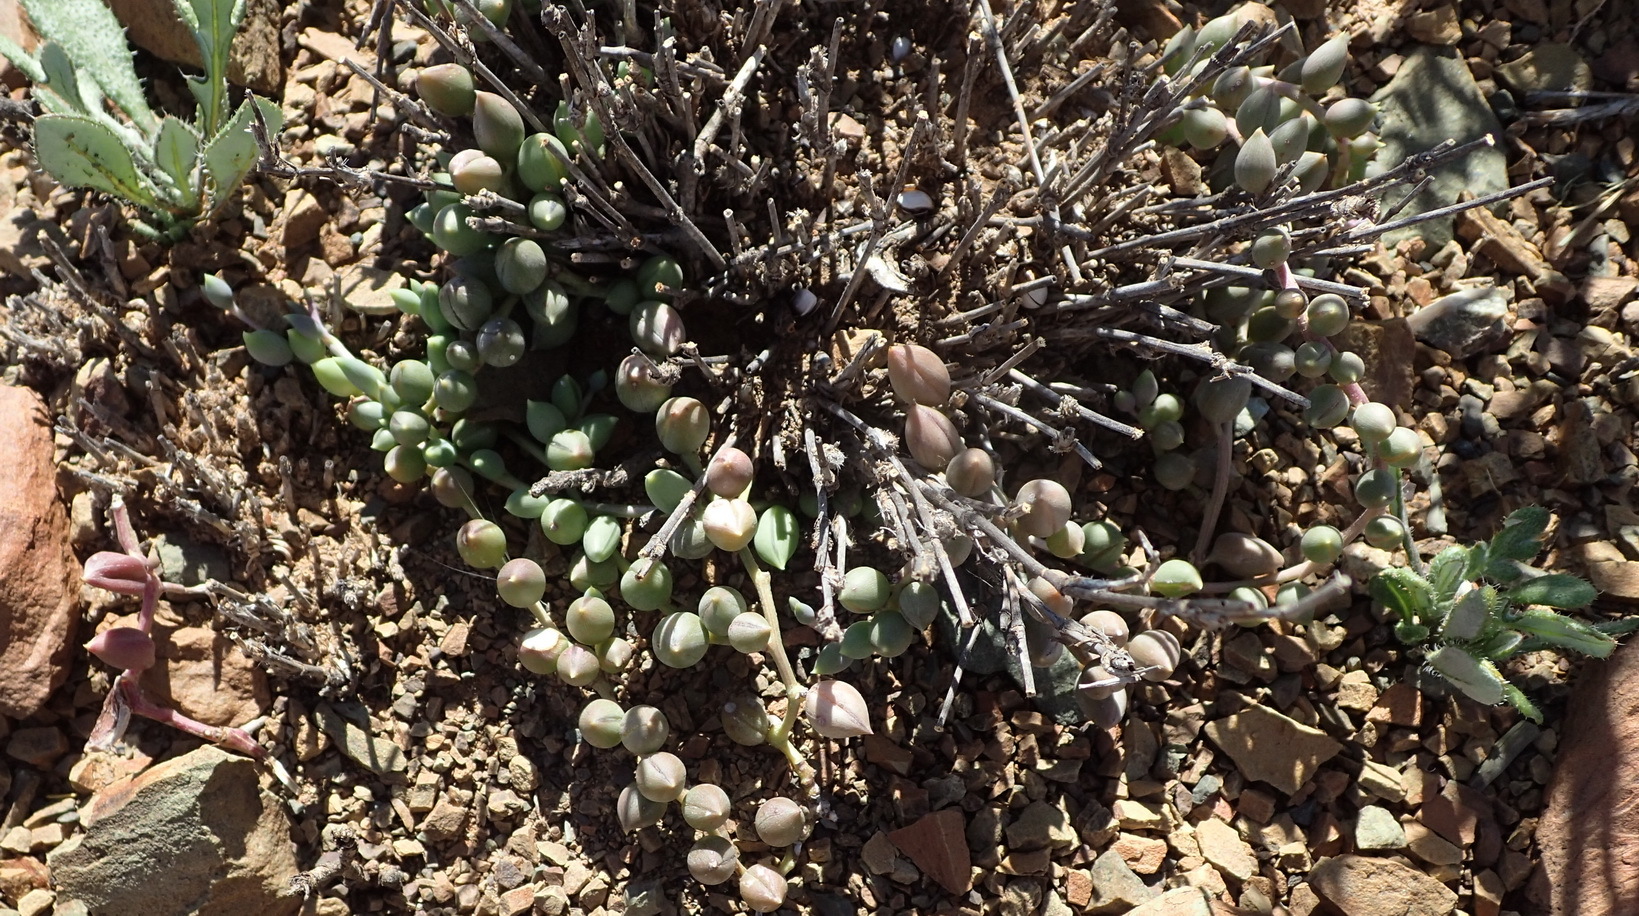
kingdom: Plantae
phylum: Tracheophyta
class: Magnoliopsida
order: Asterales
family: Asteraceae
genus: Curio
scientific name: Curio radicans
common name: Creeping-berry
